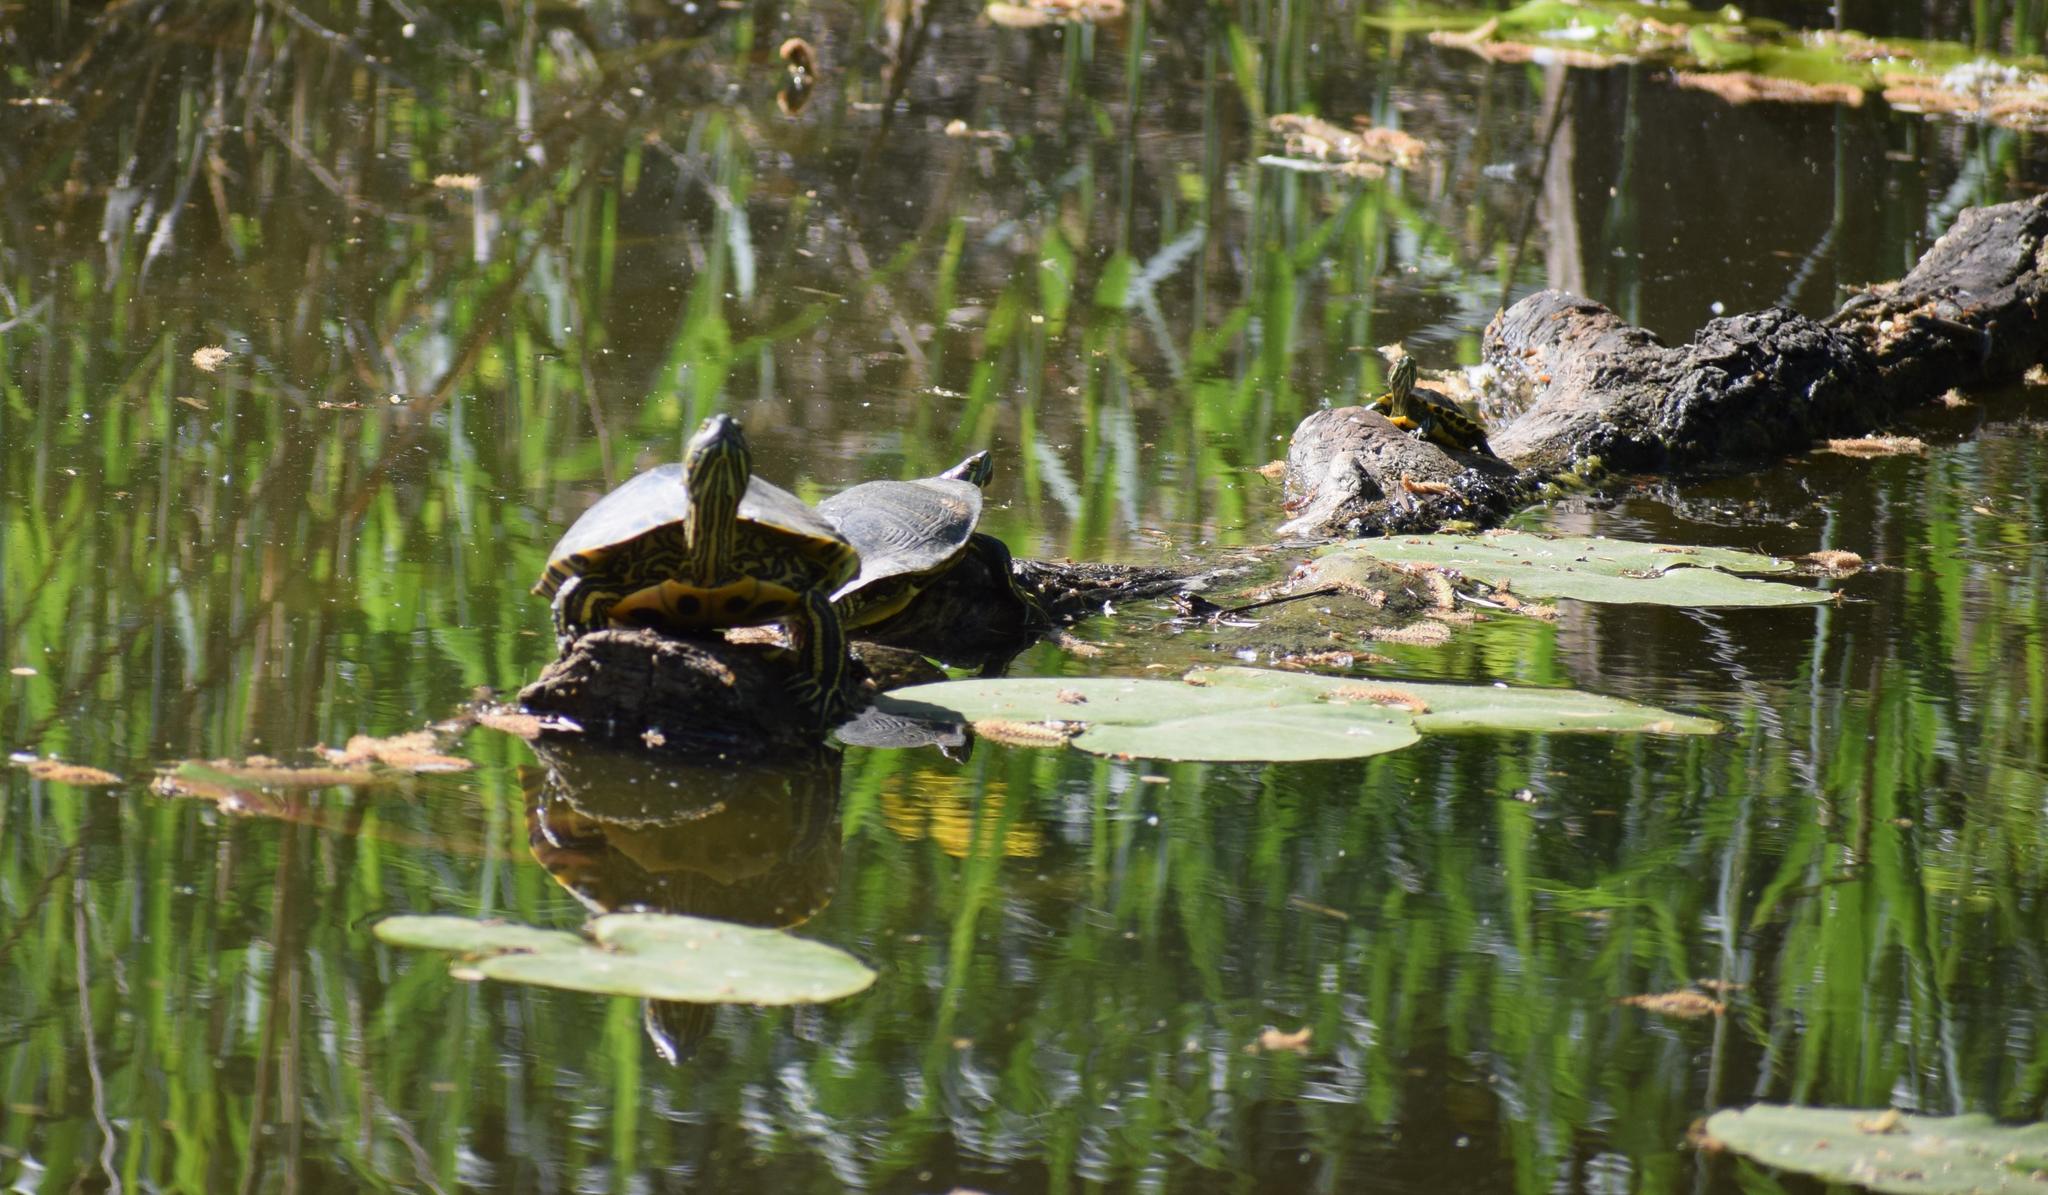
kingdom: Animalia
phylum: Chordata
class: Testudines
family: Emydidae
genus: Trachemys
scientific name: Trachemys scripta
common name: Slider
